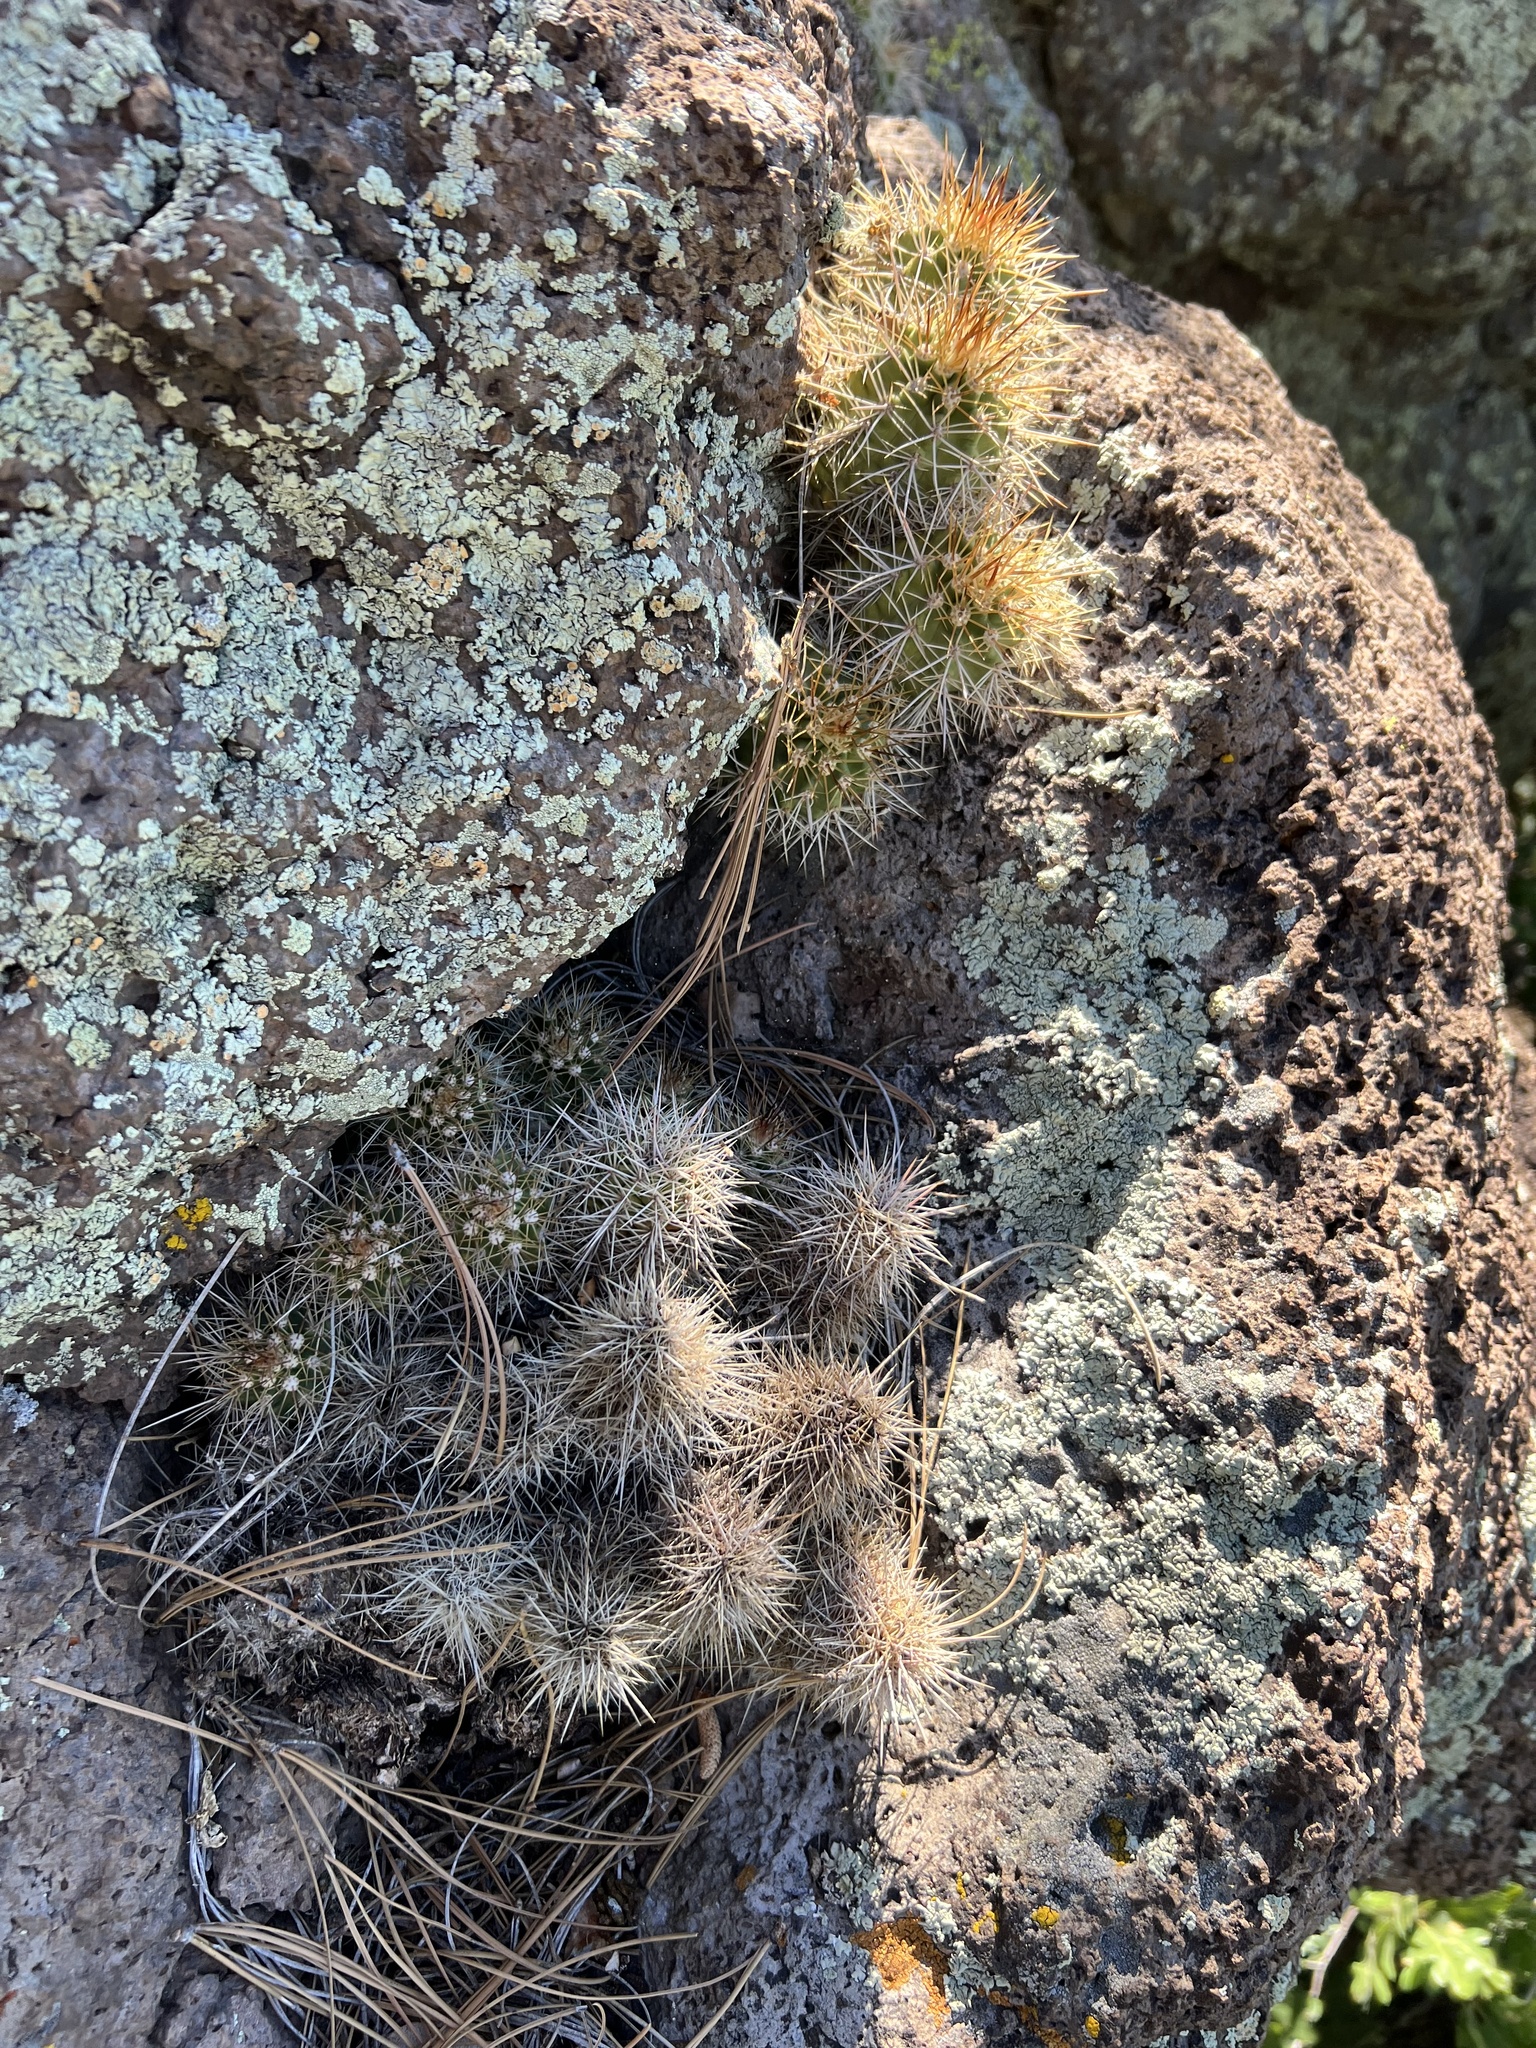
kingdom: Plantae
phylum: Tracheophyta
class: Magnoliopsida
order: Caryophyllales
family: Cactaceae
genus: Echinocereus
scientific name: Echinocereus bakeri
